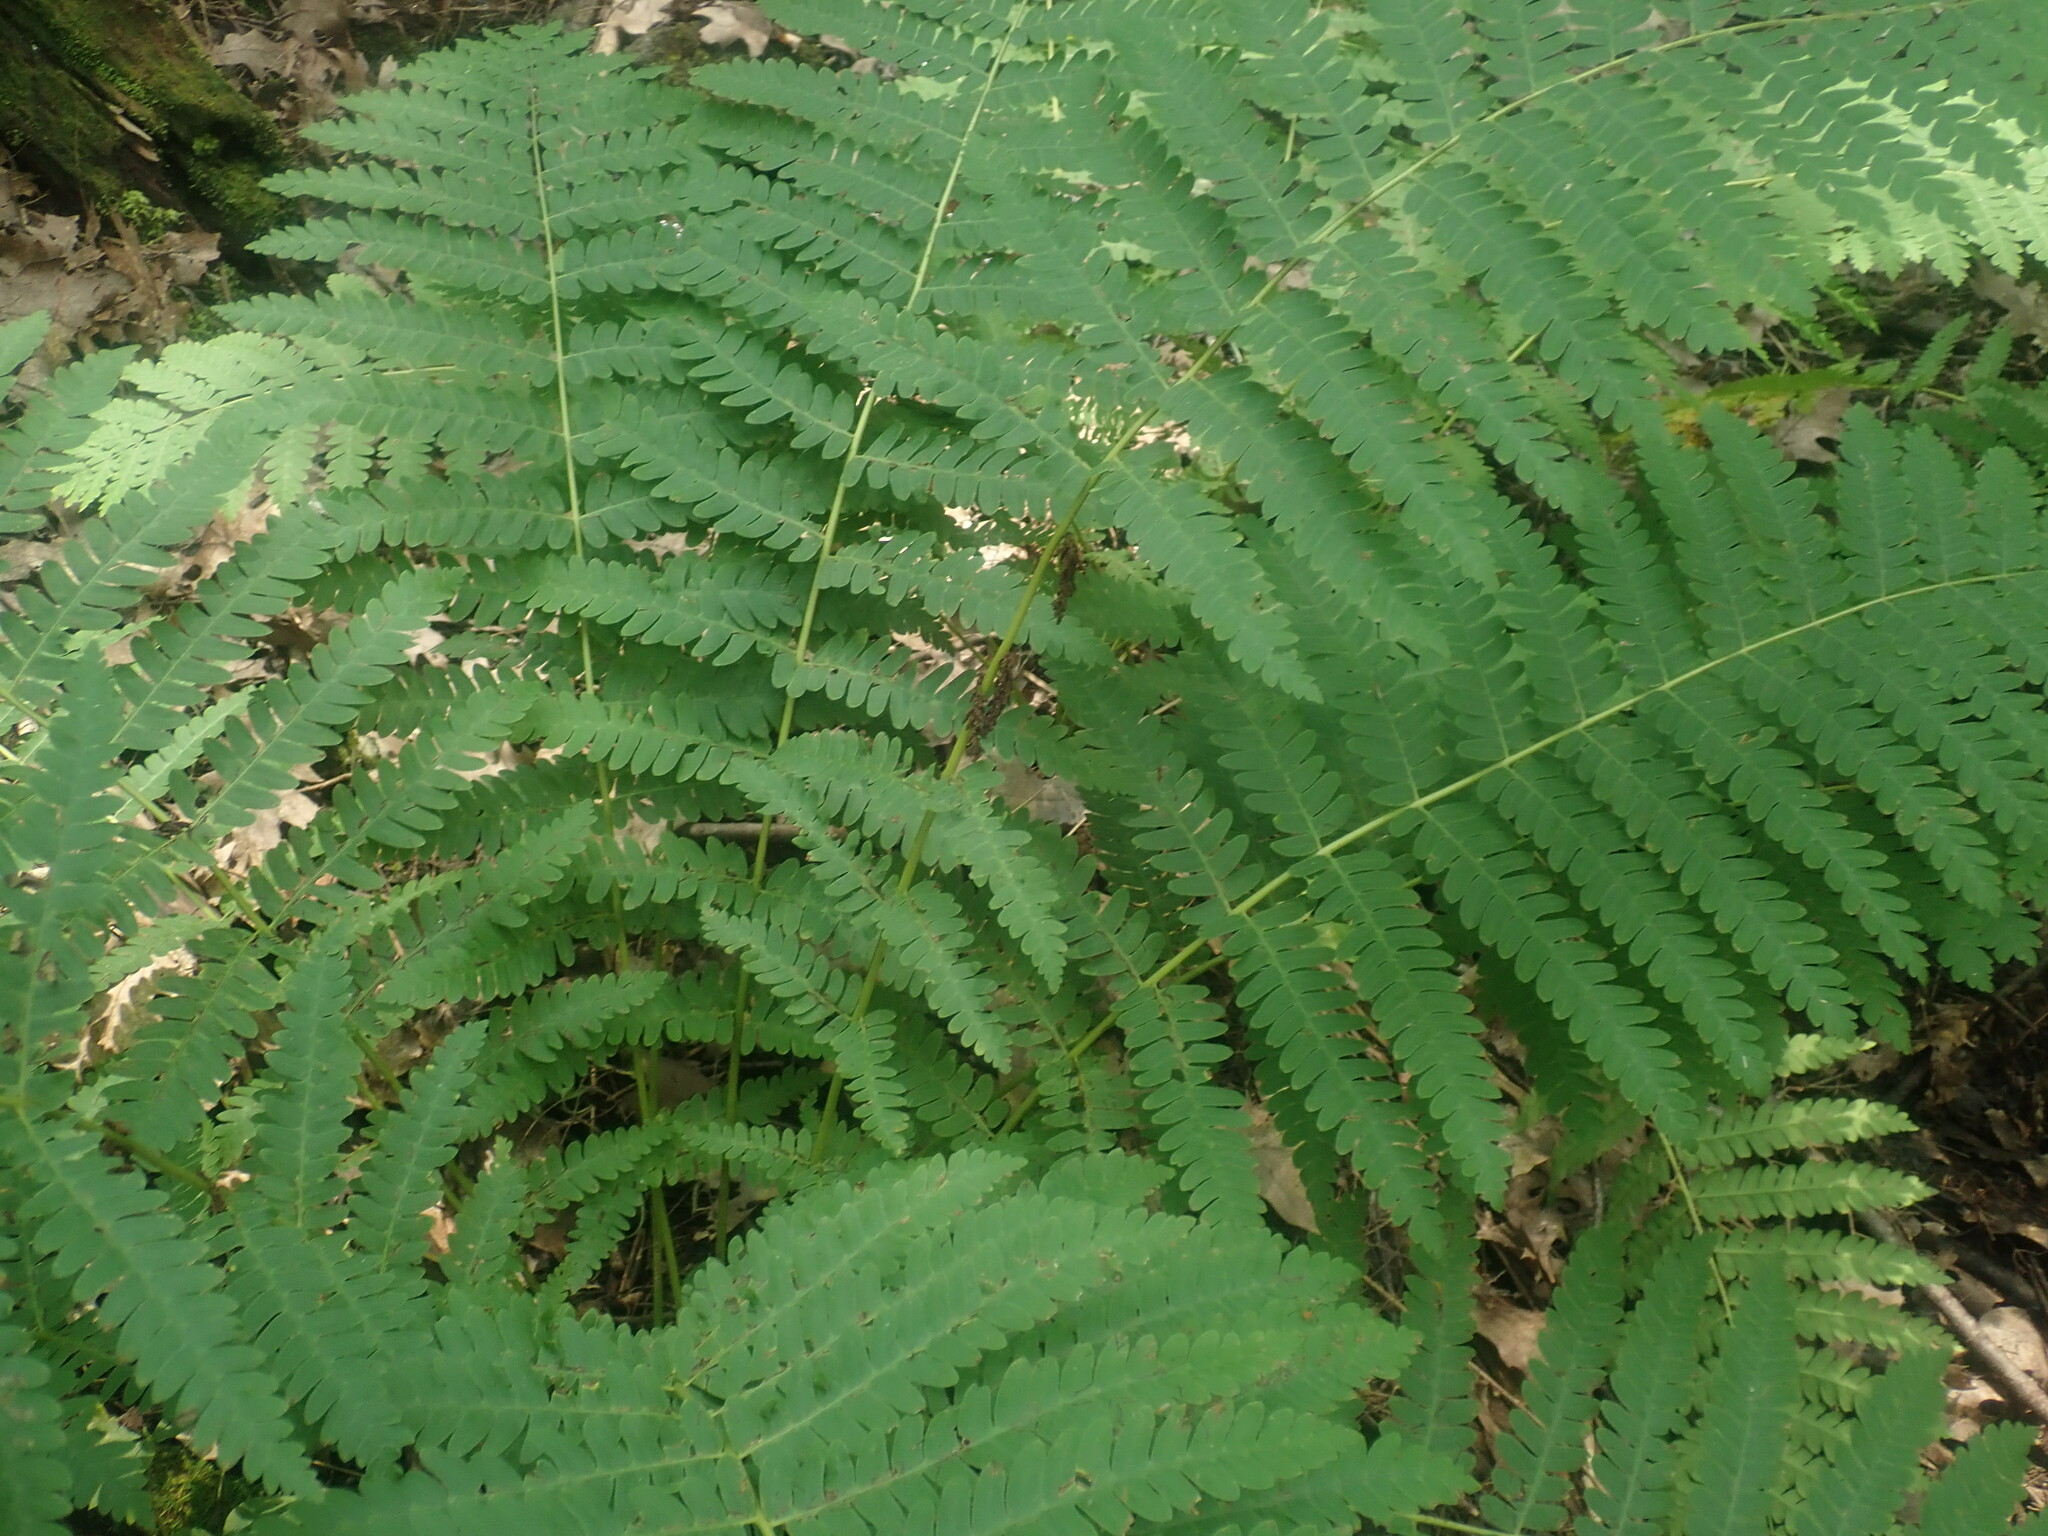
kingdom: Plantae
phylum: Tracheophyta
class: Polypodiopsida
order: Osmundales
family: Osmundaceae
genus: Claytosmunda
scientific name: Claytosmunda claytoniana
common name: Clayton's fern
